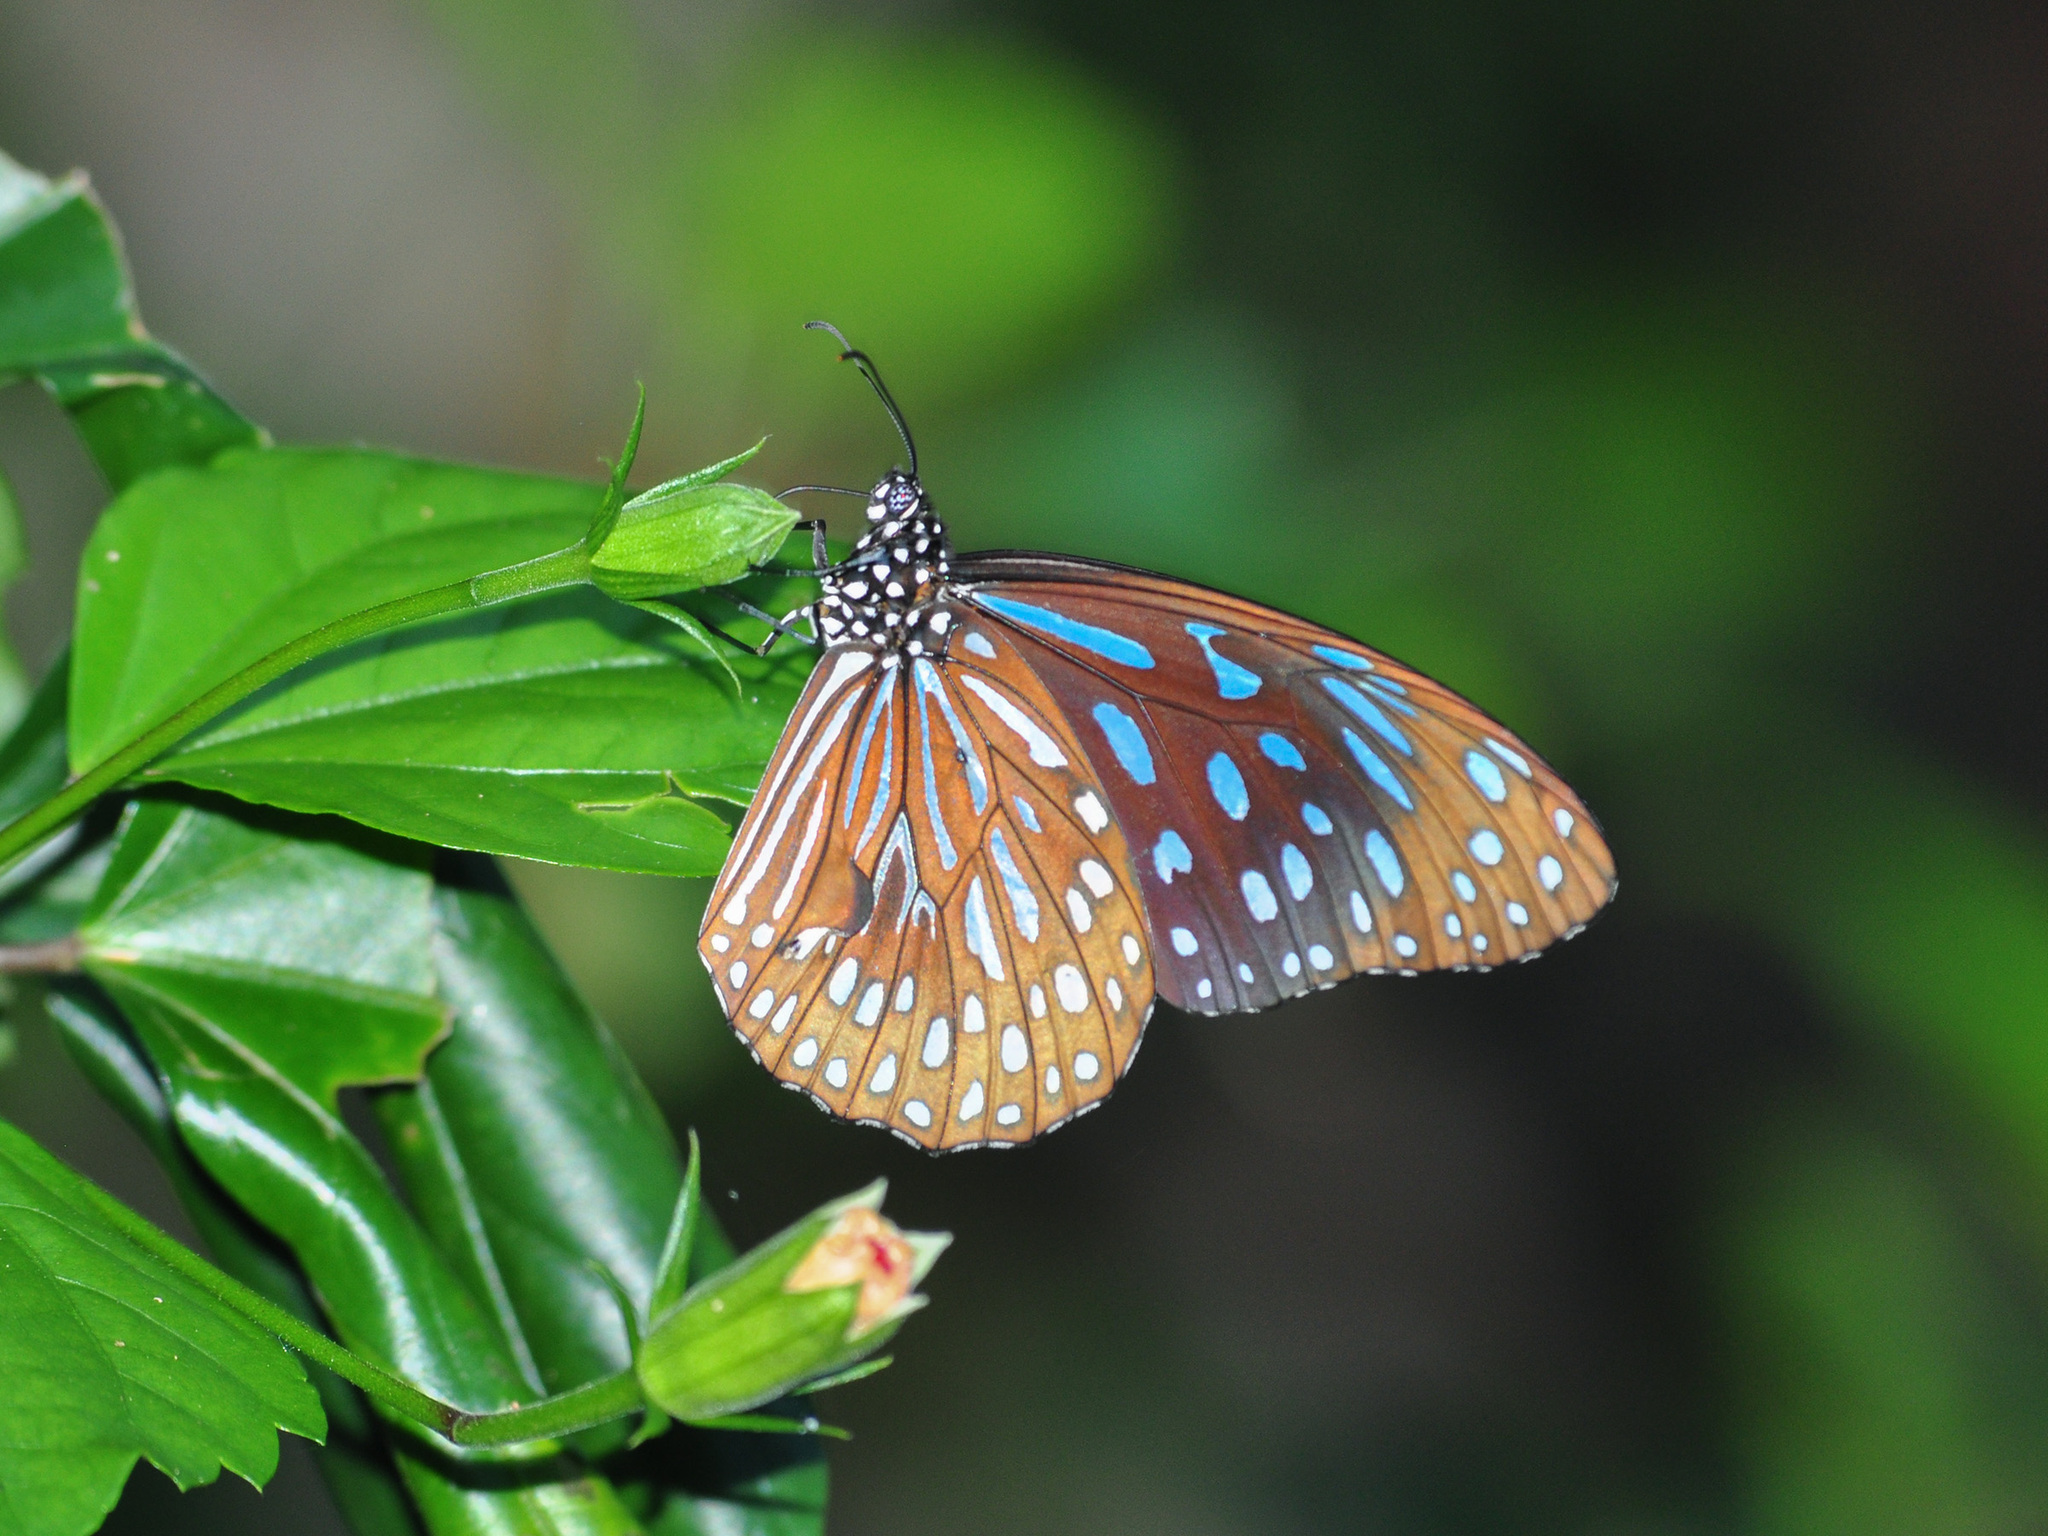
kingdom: Animalia
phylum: Arthropoda
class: Insecta
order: Lepidoptera
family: Nymphalidae
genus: Tirumala
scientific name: Tirumala septentrionis
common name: Dark blue tiger butterfly
